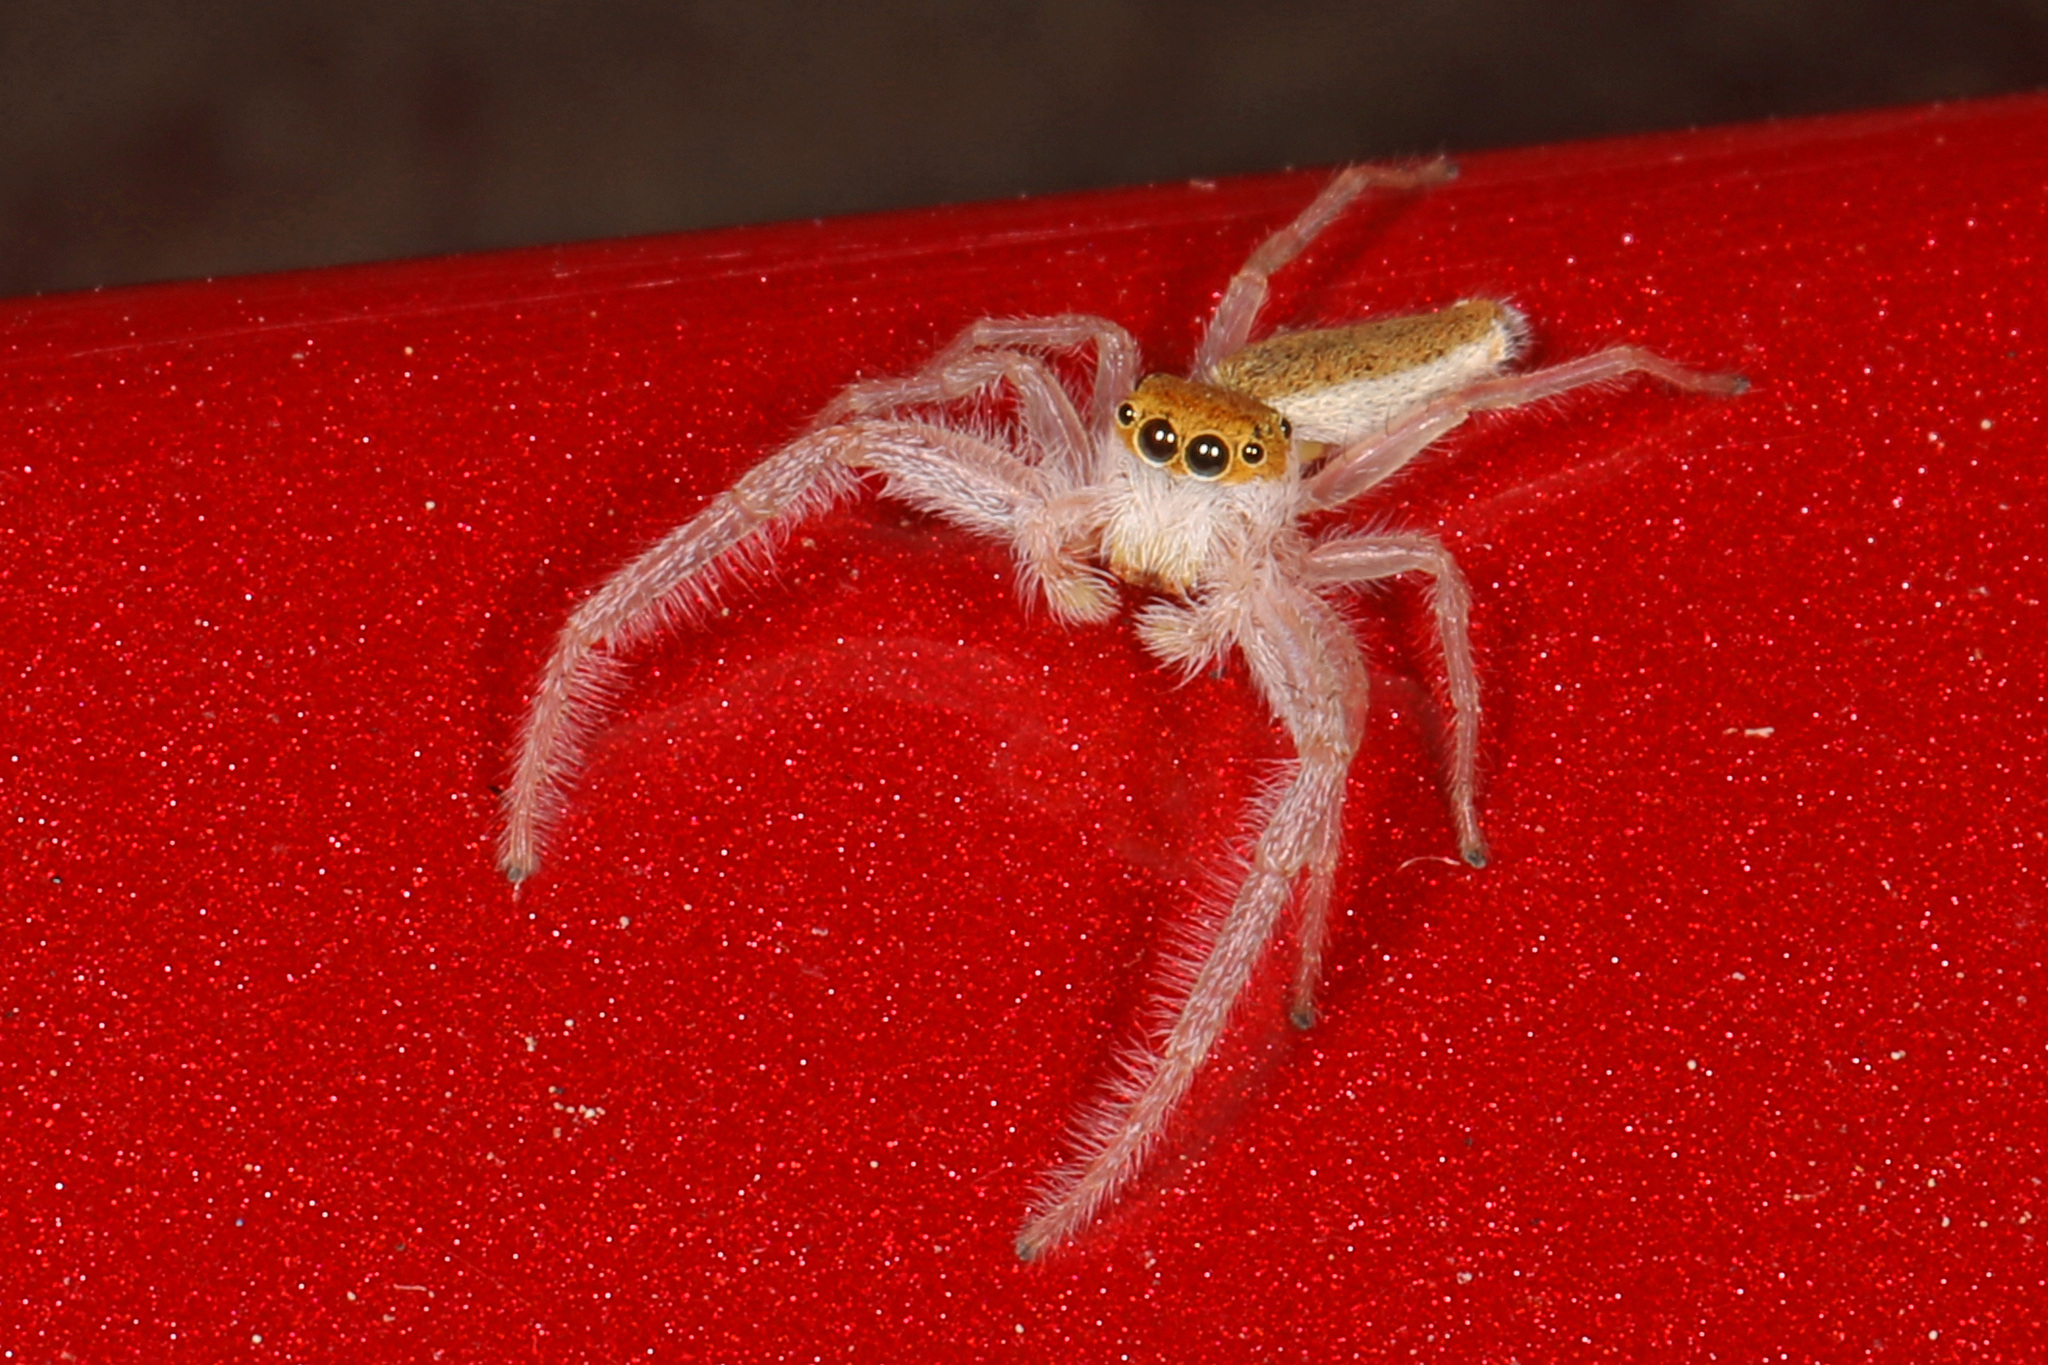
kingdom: Animalia
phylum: Arthropoda
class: Arachnida
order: Araneae
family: Salticidae
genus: Hentzia
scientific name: Hentzia mitrata
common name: White-jawed jumping spider
